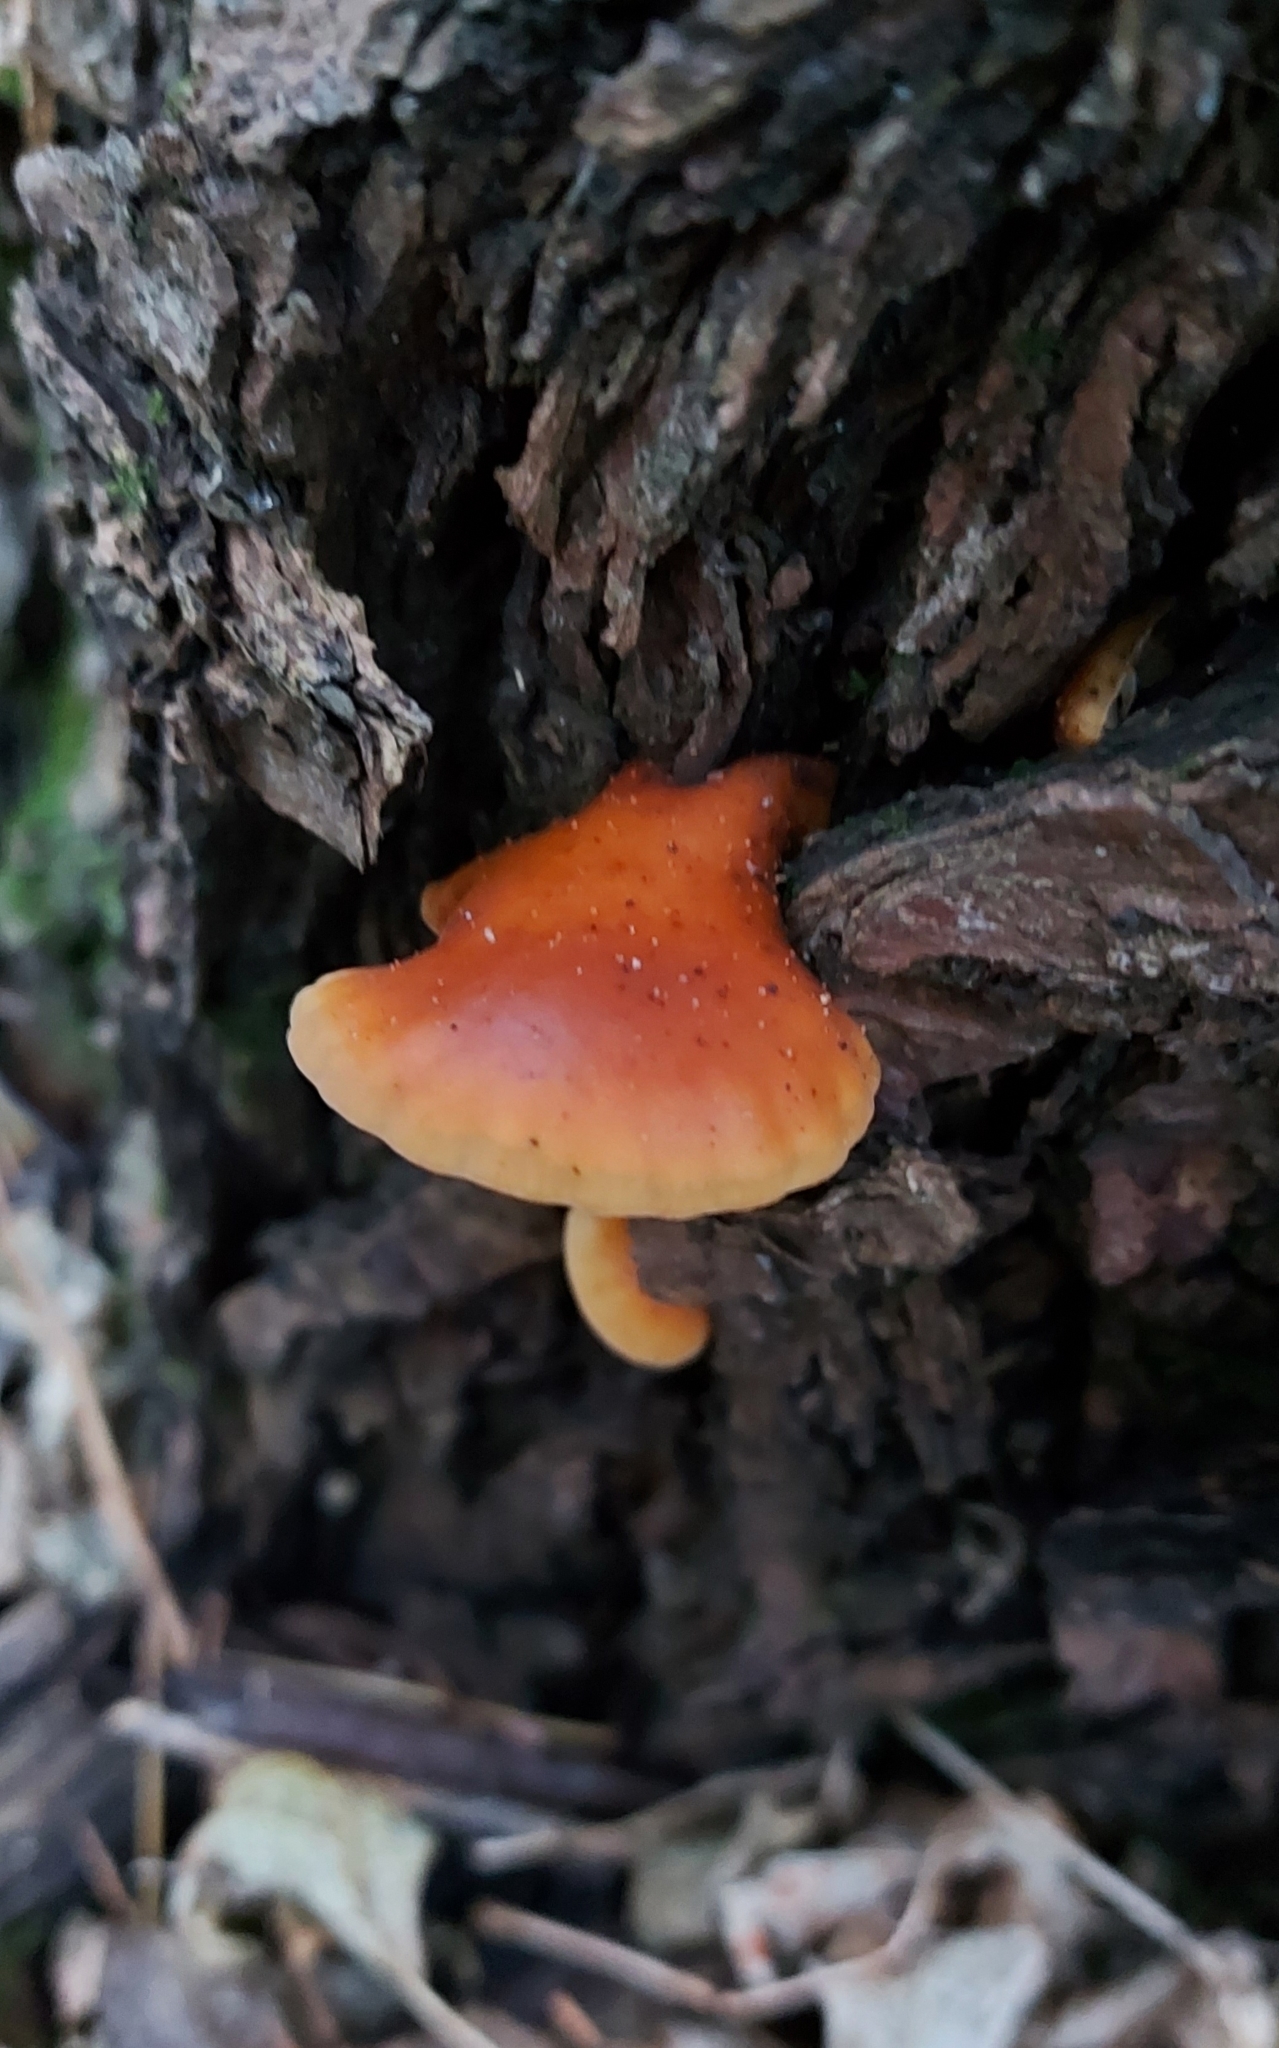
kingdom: Fungi
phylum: Basidiomycota
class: Agaricomycetes
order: Agaricales
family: Physalacriaceae
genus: Flammulina
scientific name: Flammulina
